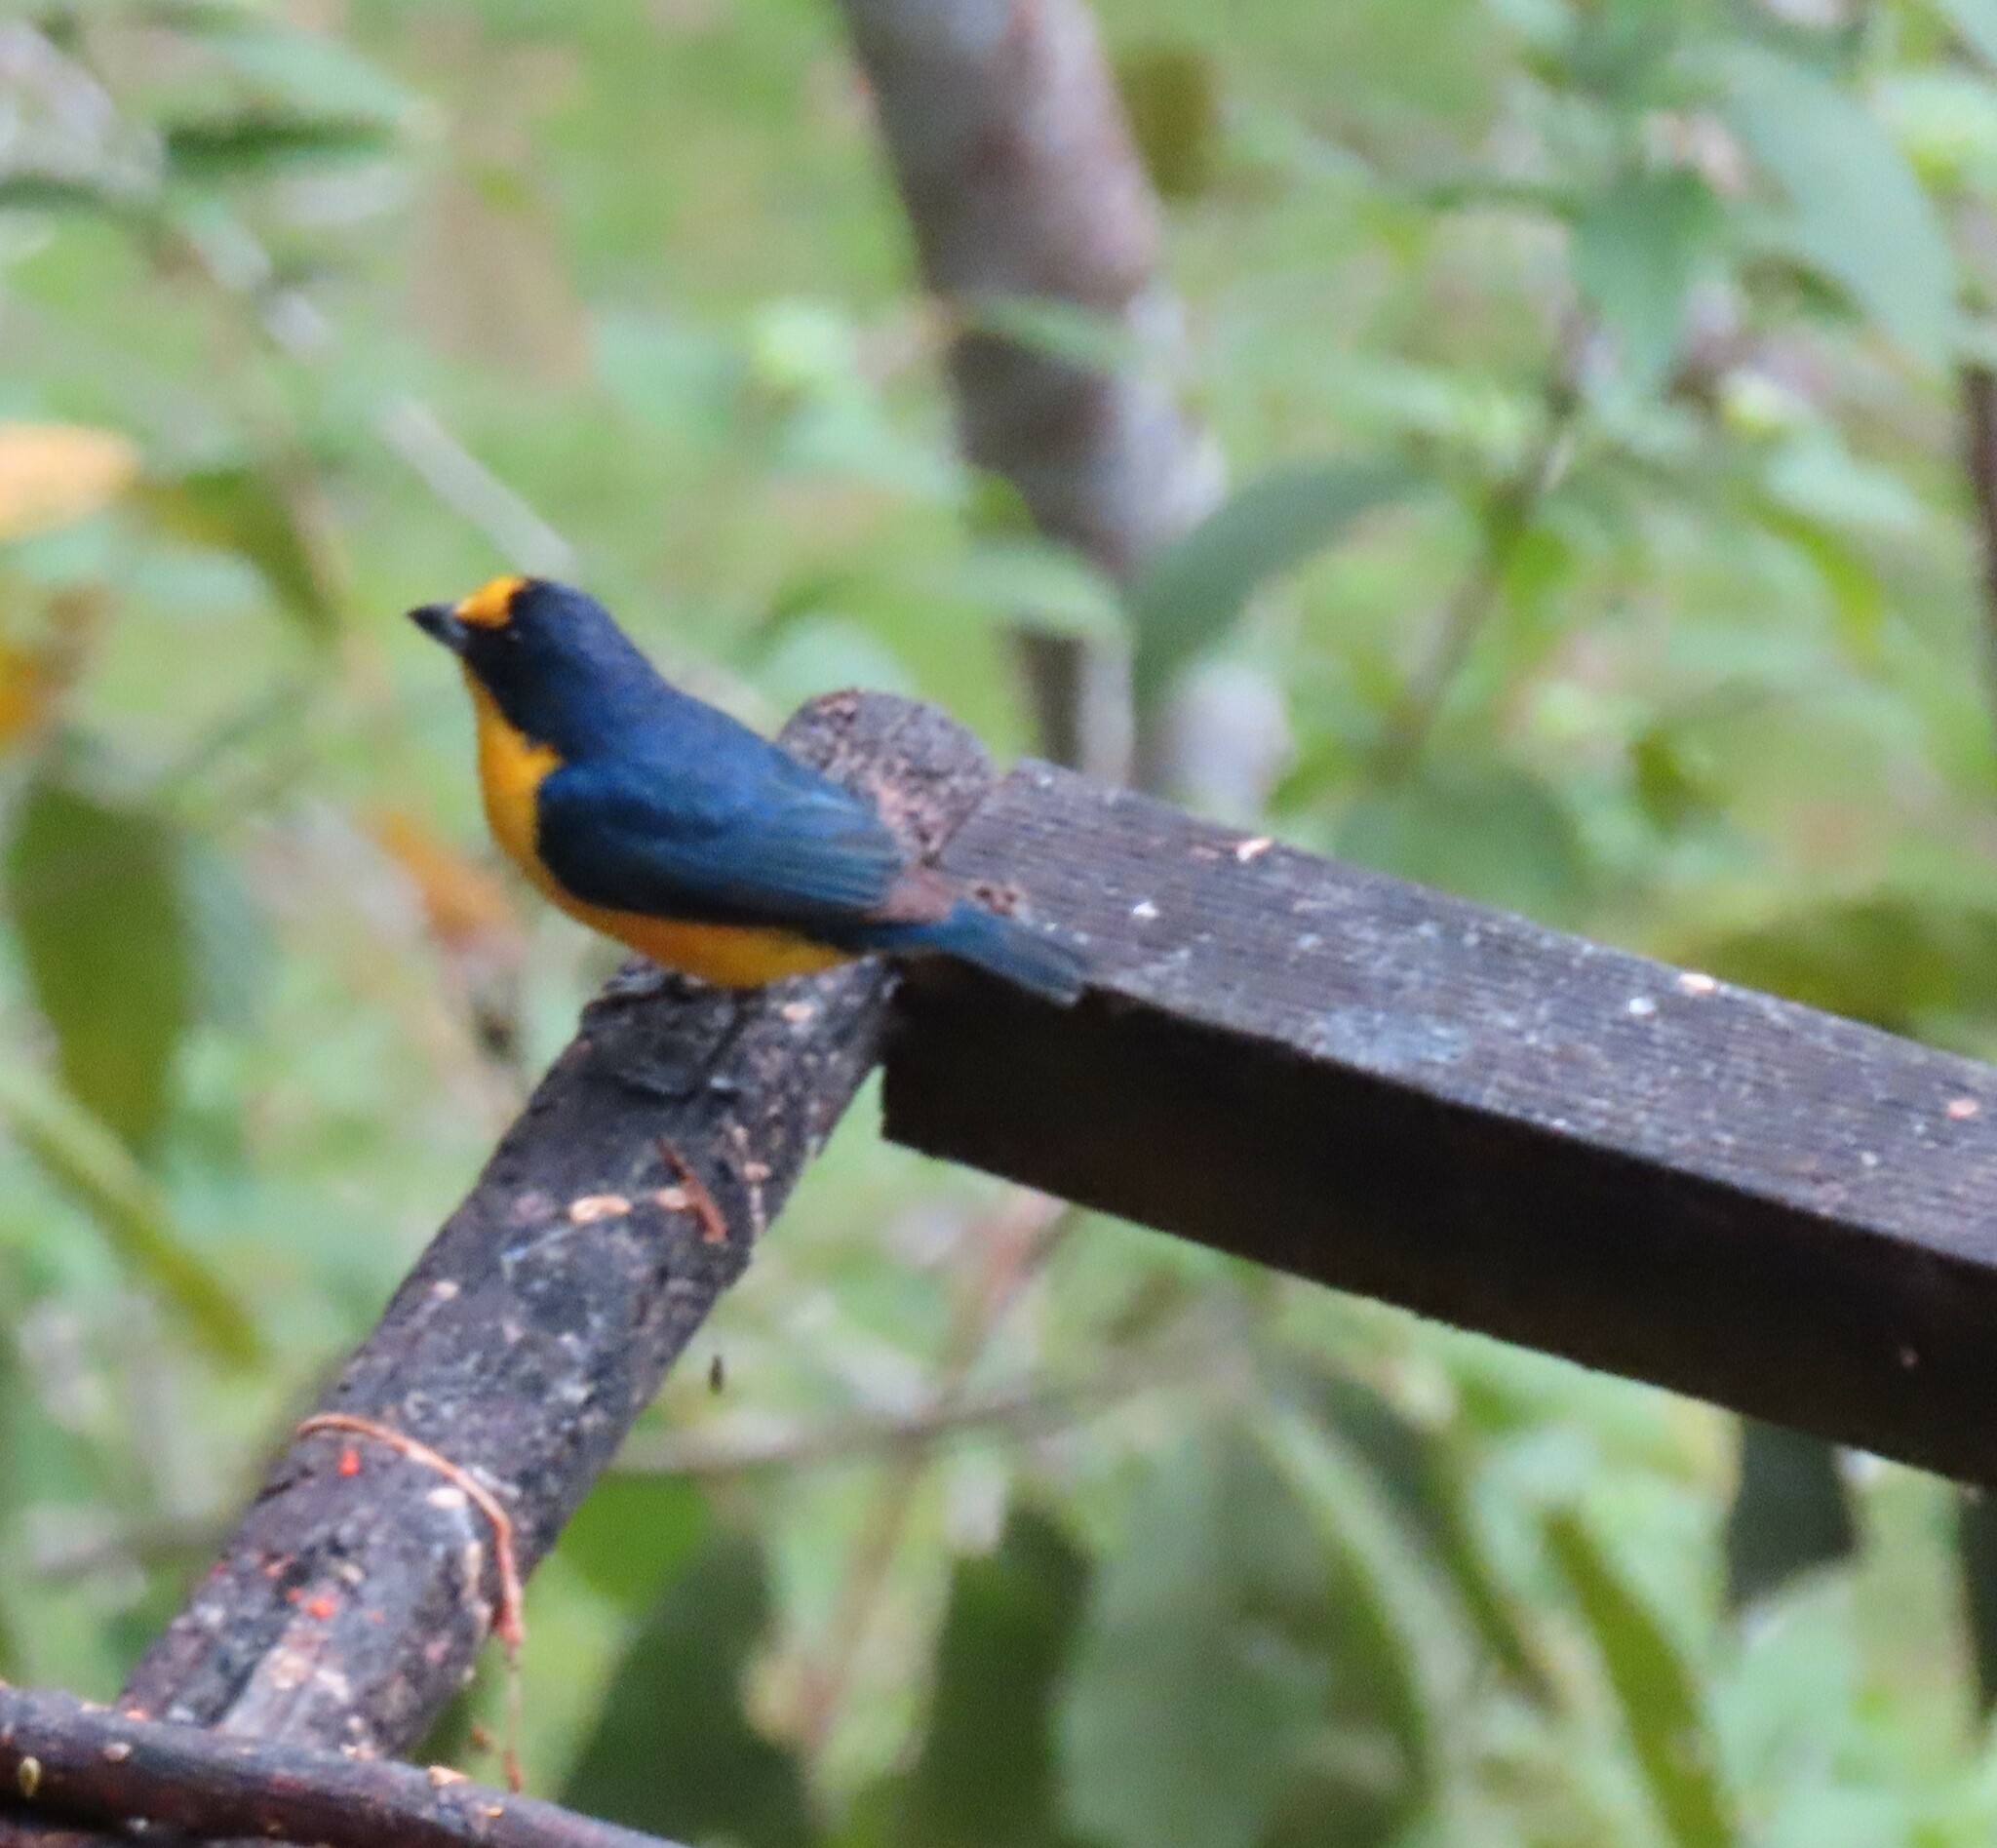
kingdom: Animalia
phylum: Chordata
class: Aves
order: Passeriformes
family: Fringillidae
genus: Euphonia
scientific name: Euphonia hirundinacea
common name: Yellow-throated euphonia
